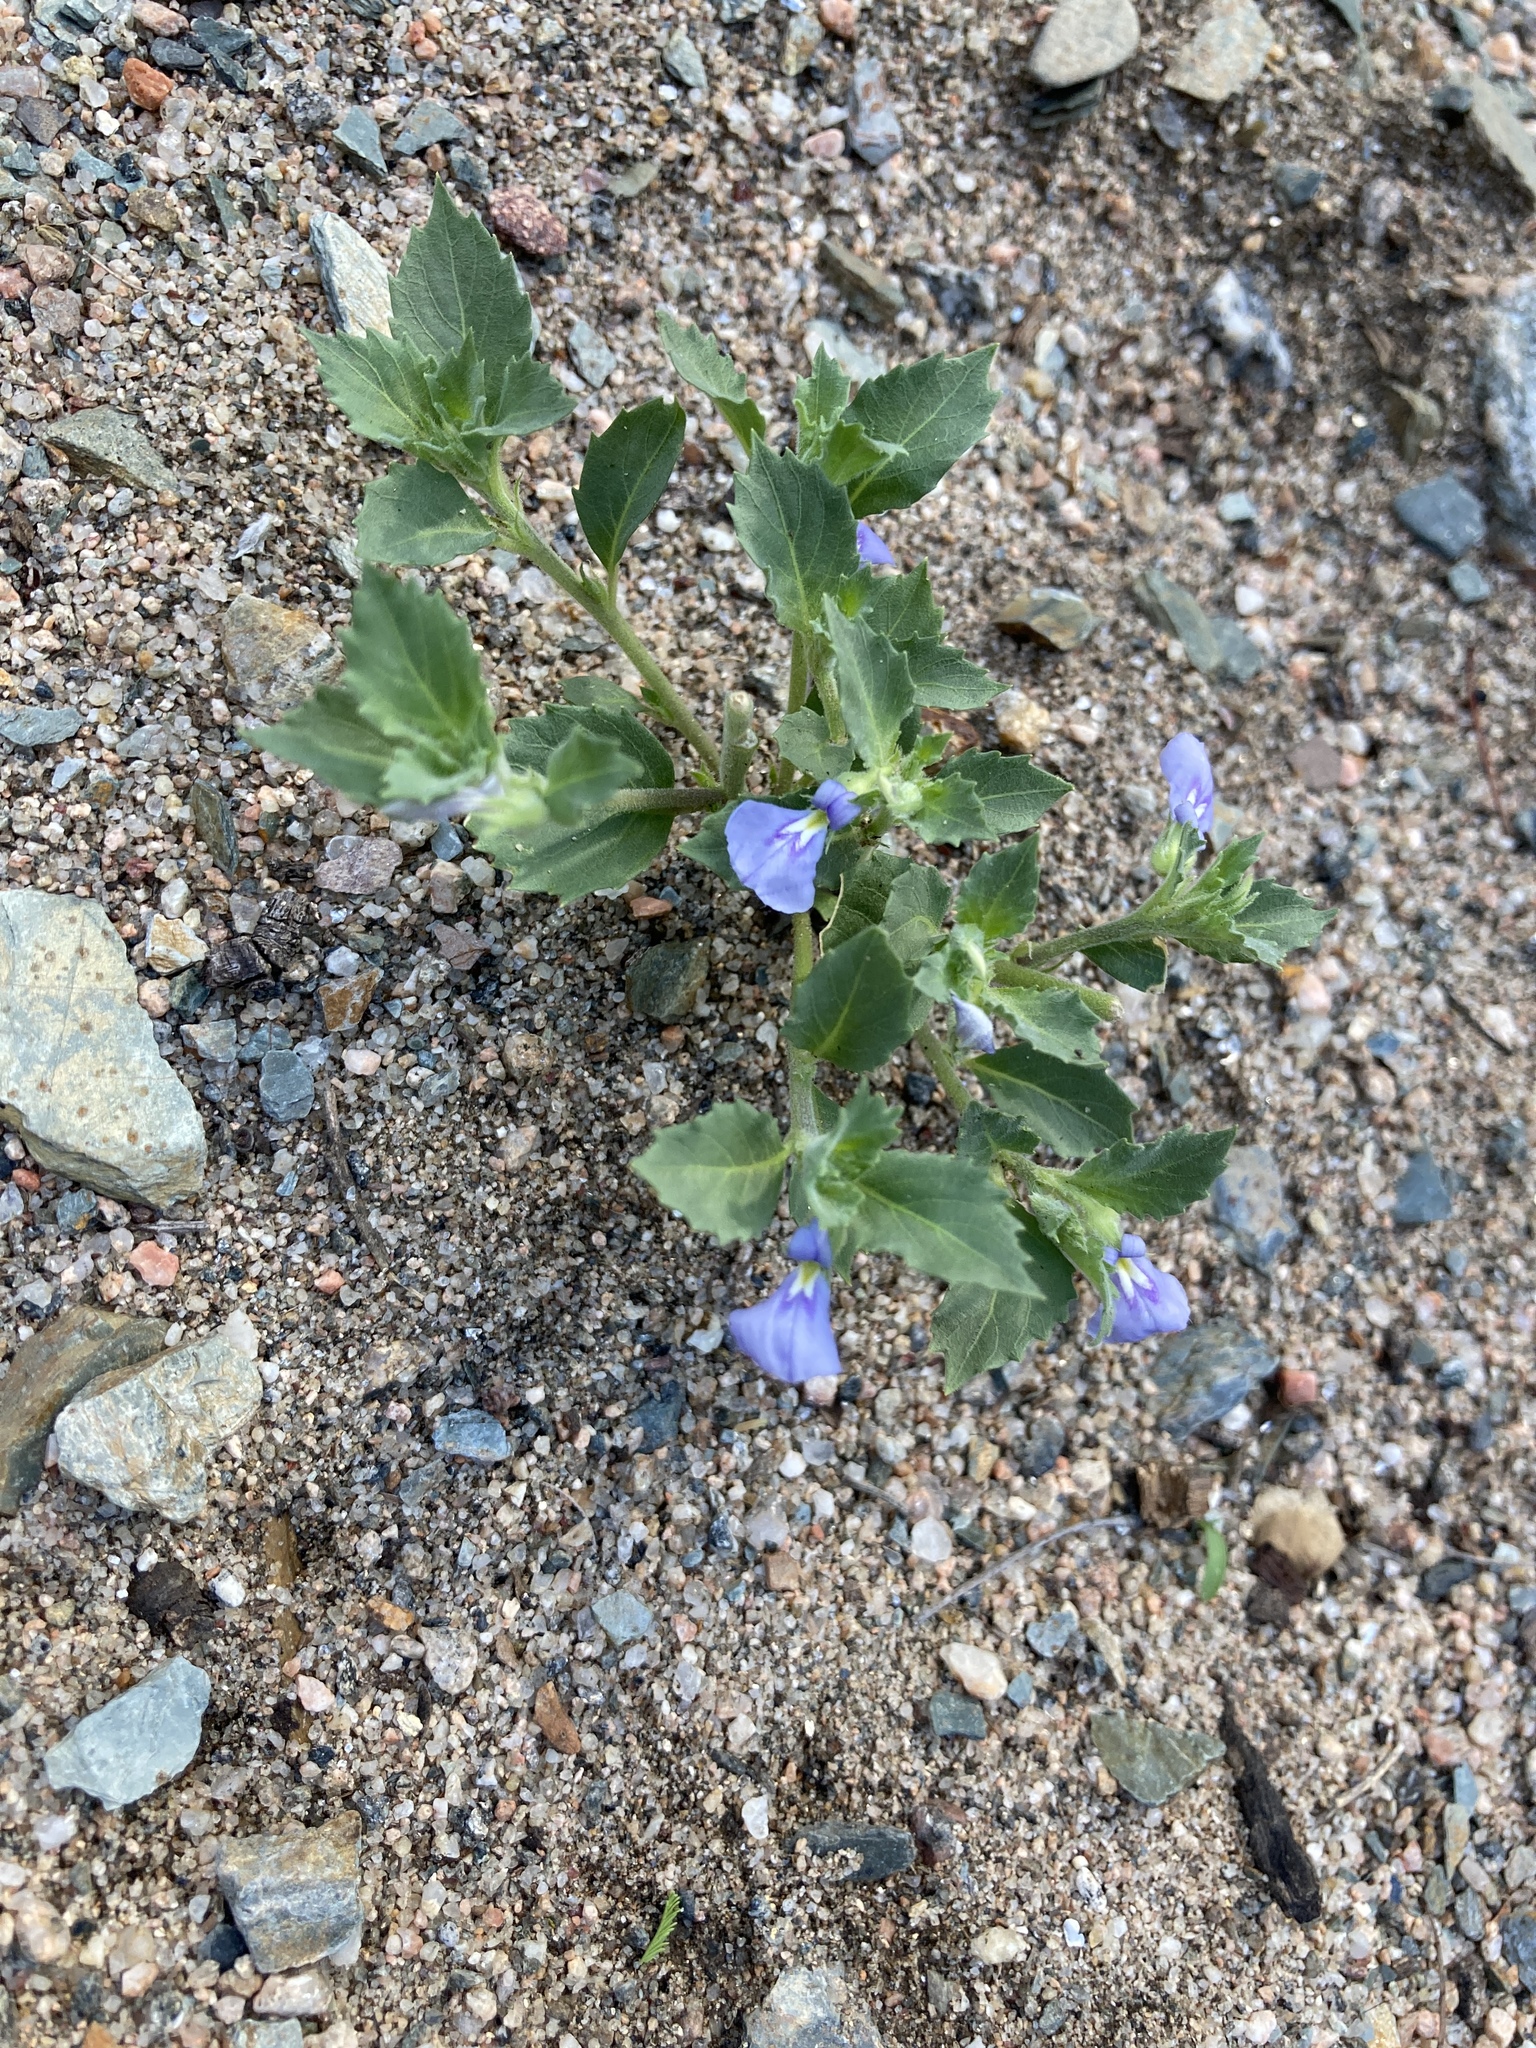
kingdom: Plantae
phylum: Tracheophyta
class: Magnoliopsida
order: Malpighiales
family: Violaceae
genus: Pombalia
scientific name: Pombalia serrata
